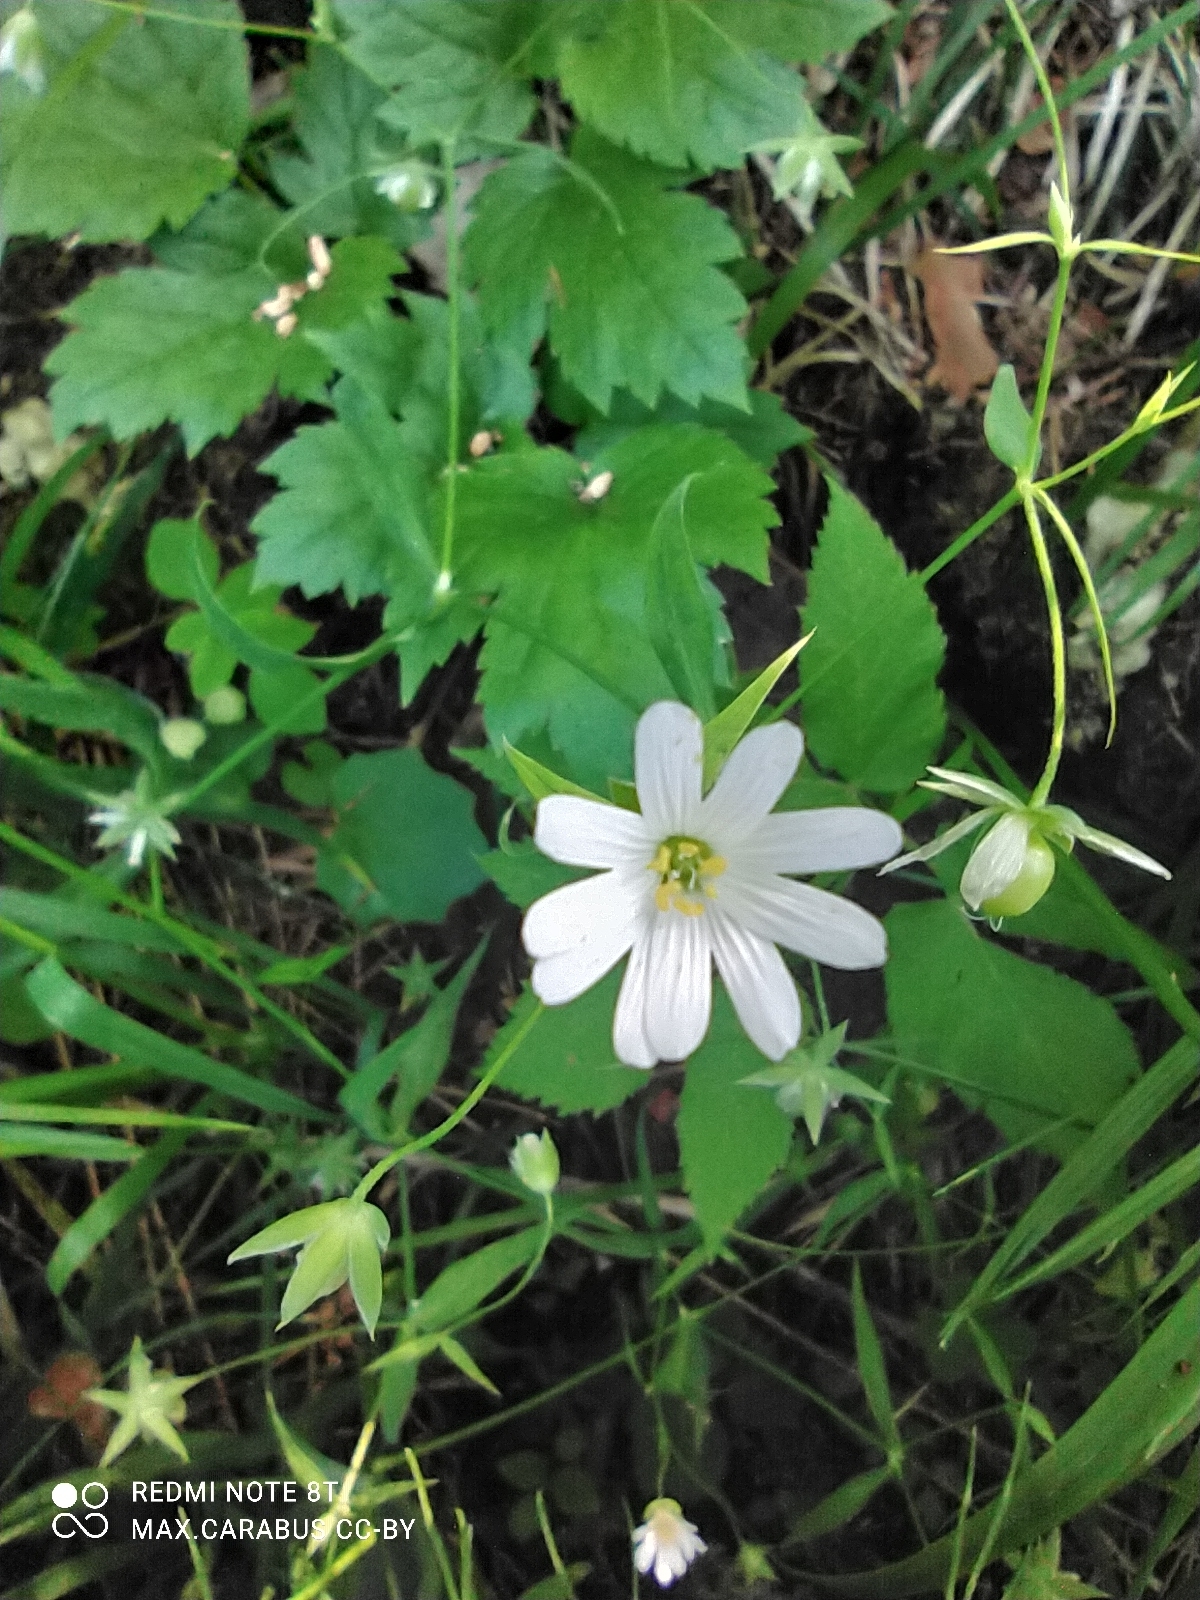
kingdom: Plantae
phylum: Tracheophyta
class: Magnoliopsida
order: Caryophyllales
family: Caryophyllaceae
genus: Rabelera
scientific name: Rabelera holostea
